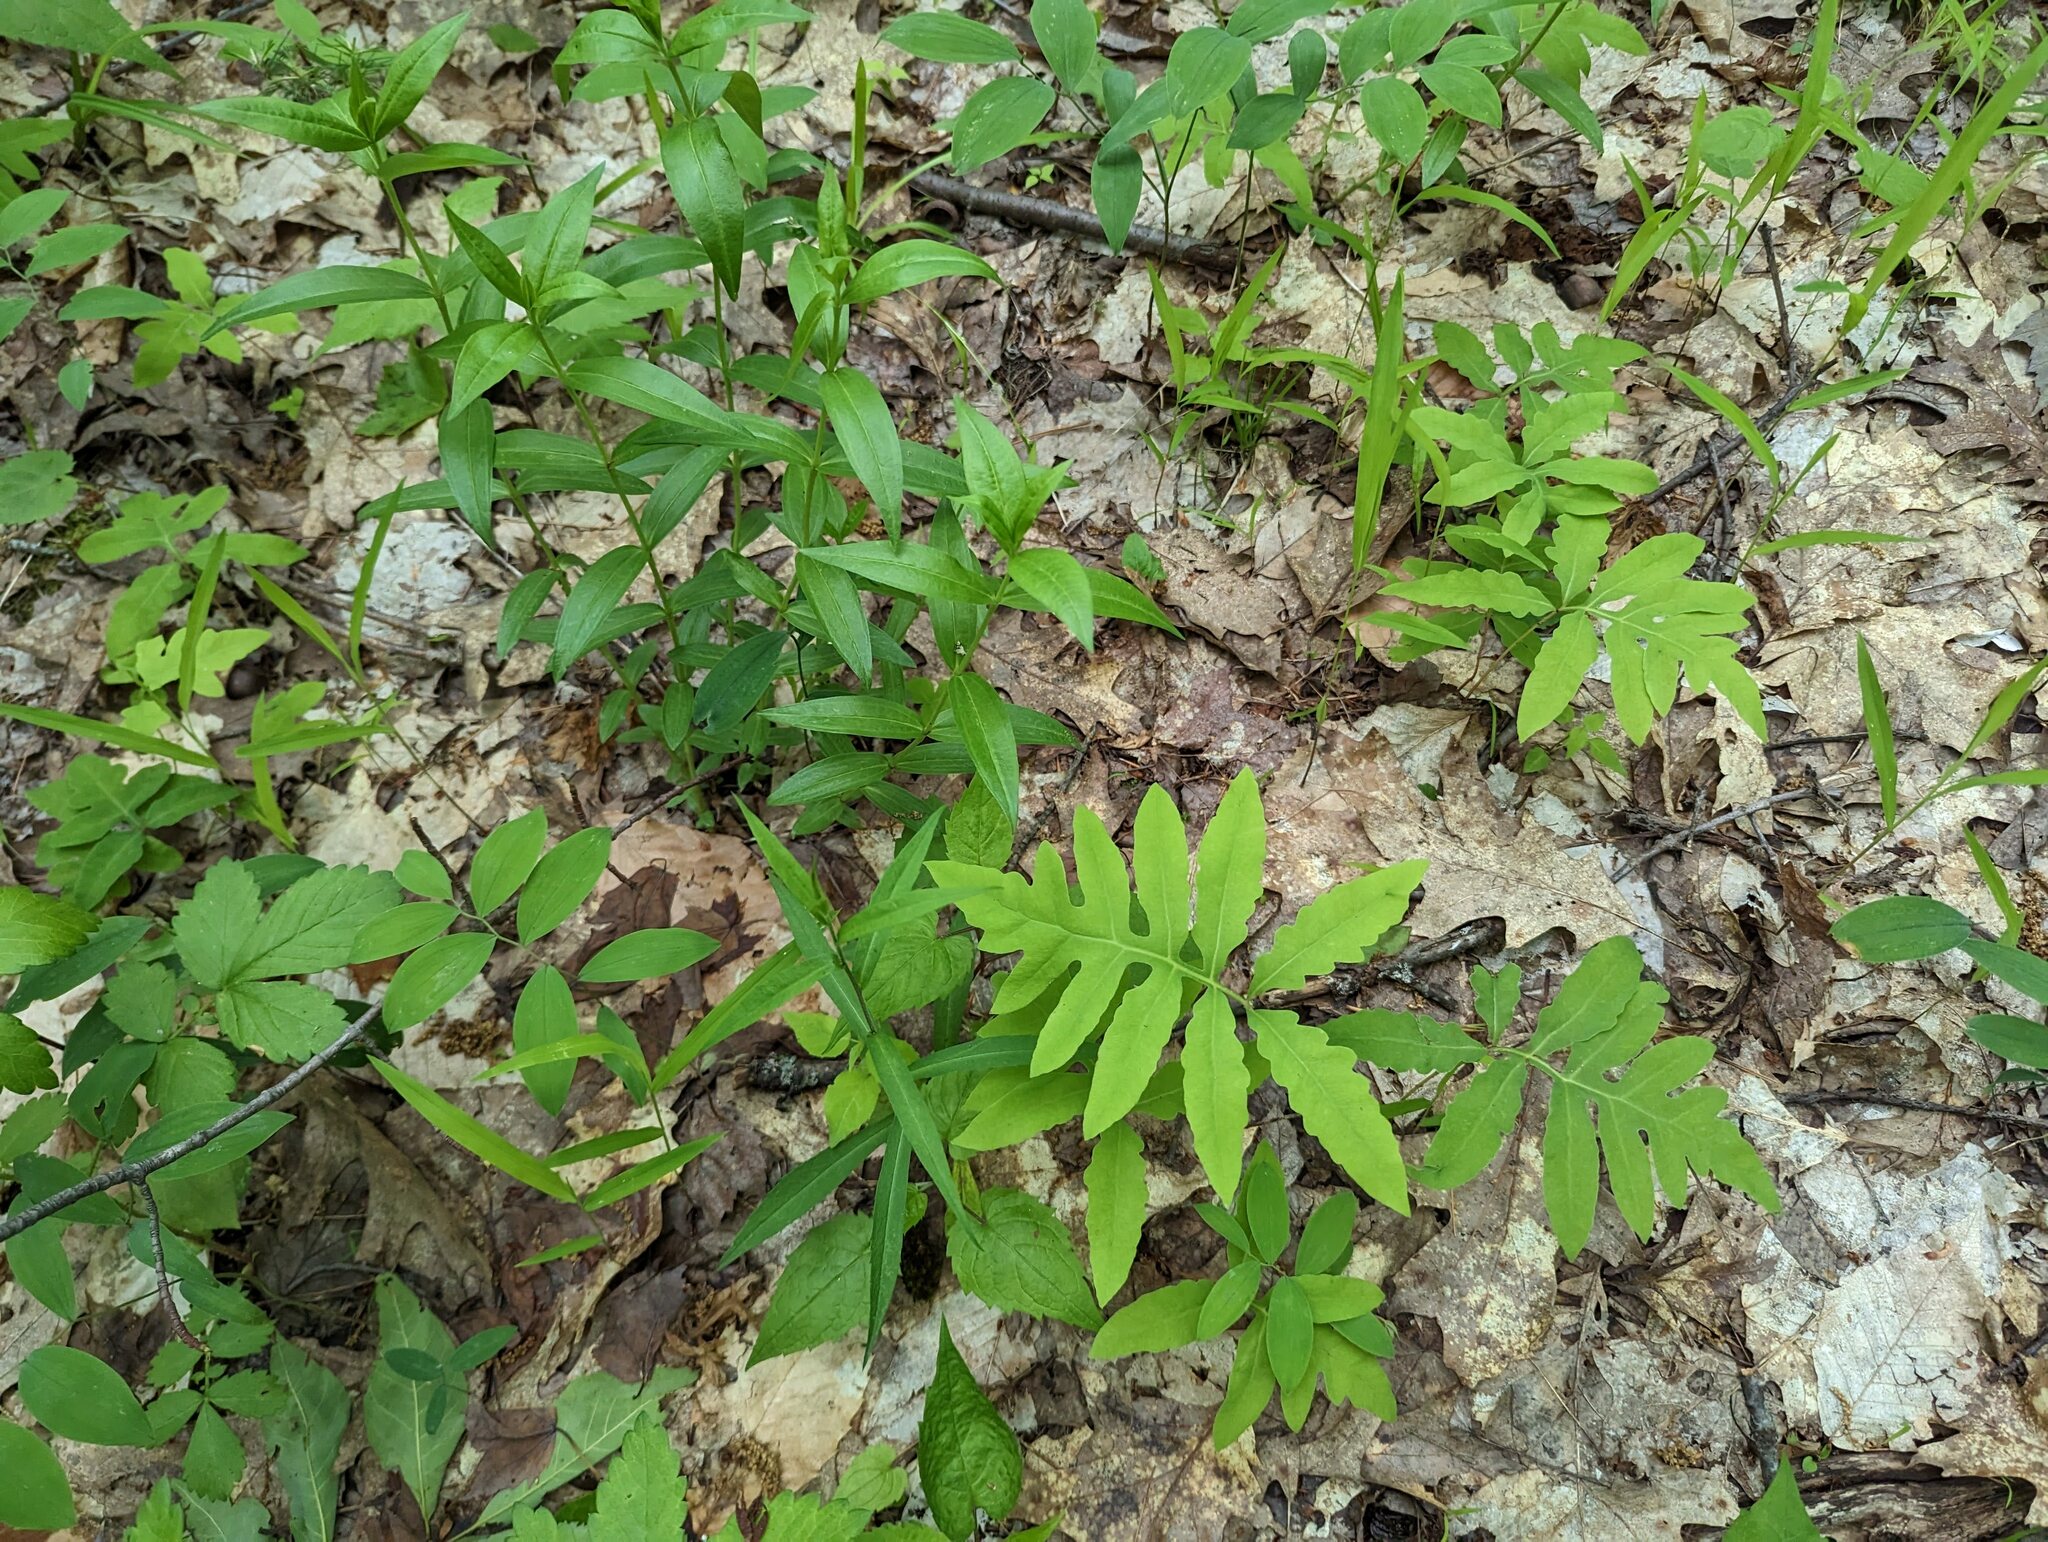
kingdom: Plantae
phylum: Tracheophyta
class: Polypodiopsida
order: Polypodiales
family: Onocleaceae
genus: Onoclea
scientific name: Onoclea sensibilis
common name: Sensitive fern
